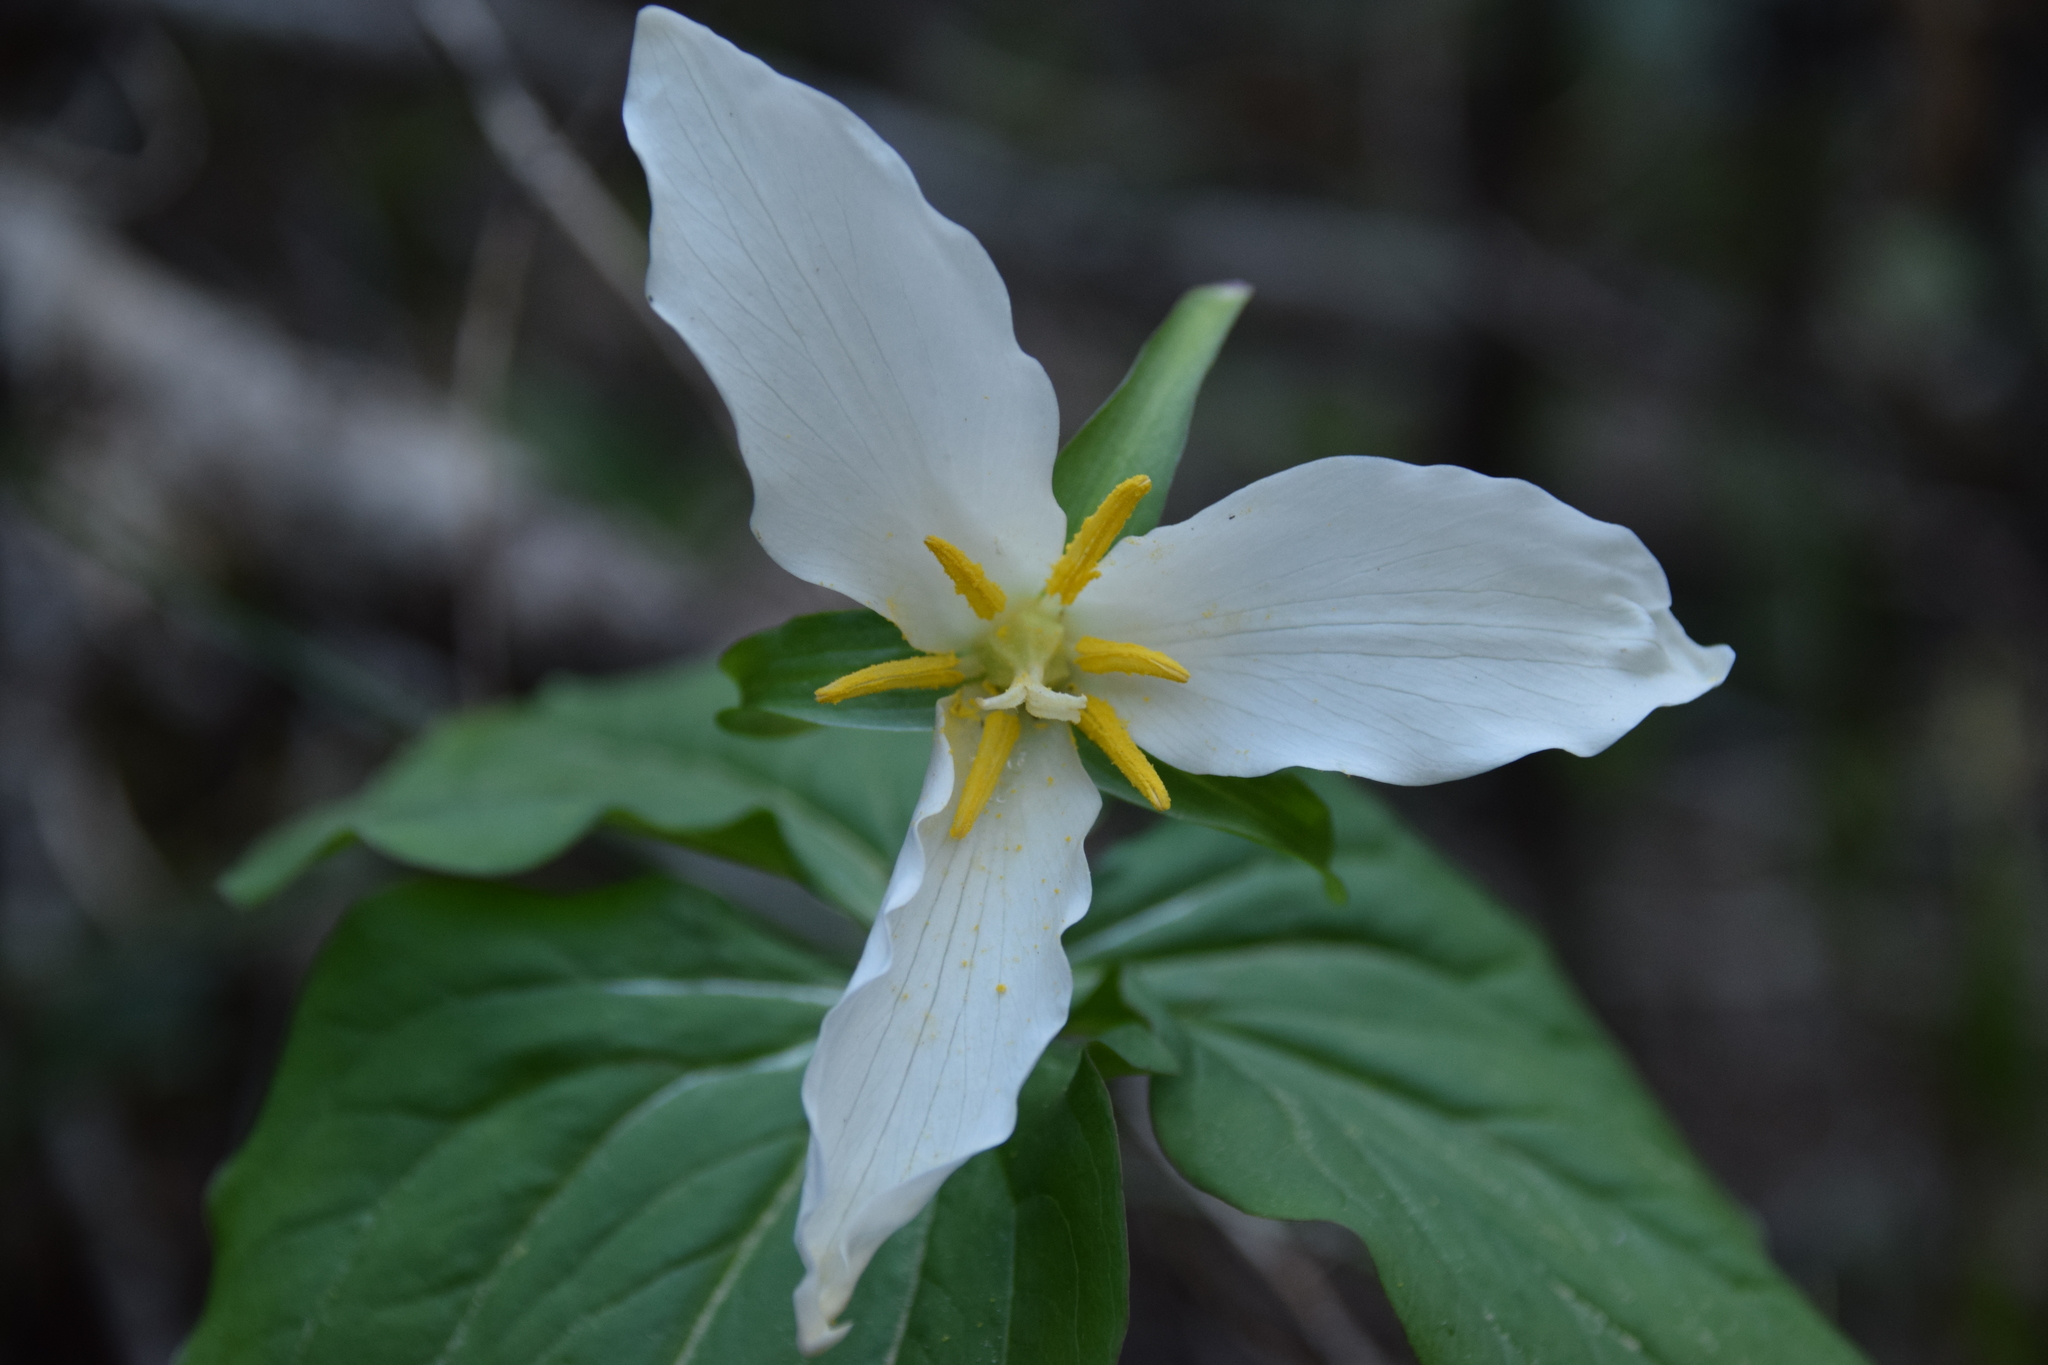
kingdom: Plantae
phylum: Tracheophyta
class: Liliopsida
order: Liliales
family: Melanthiaceae
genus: Trillium
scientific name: Trillium ovatum
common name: Pacific trillium
